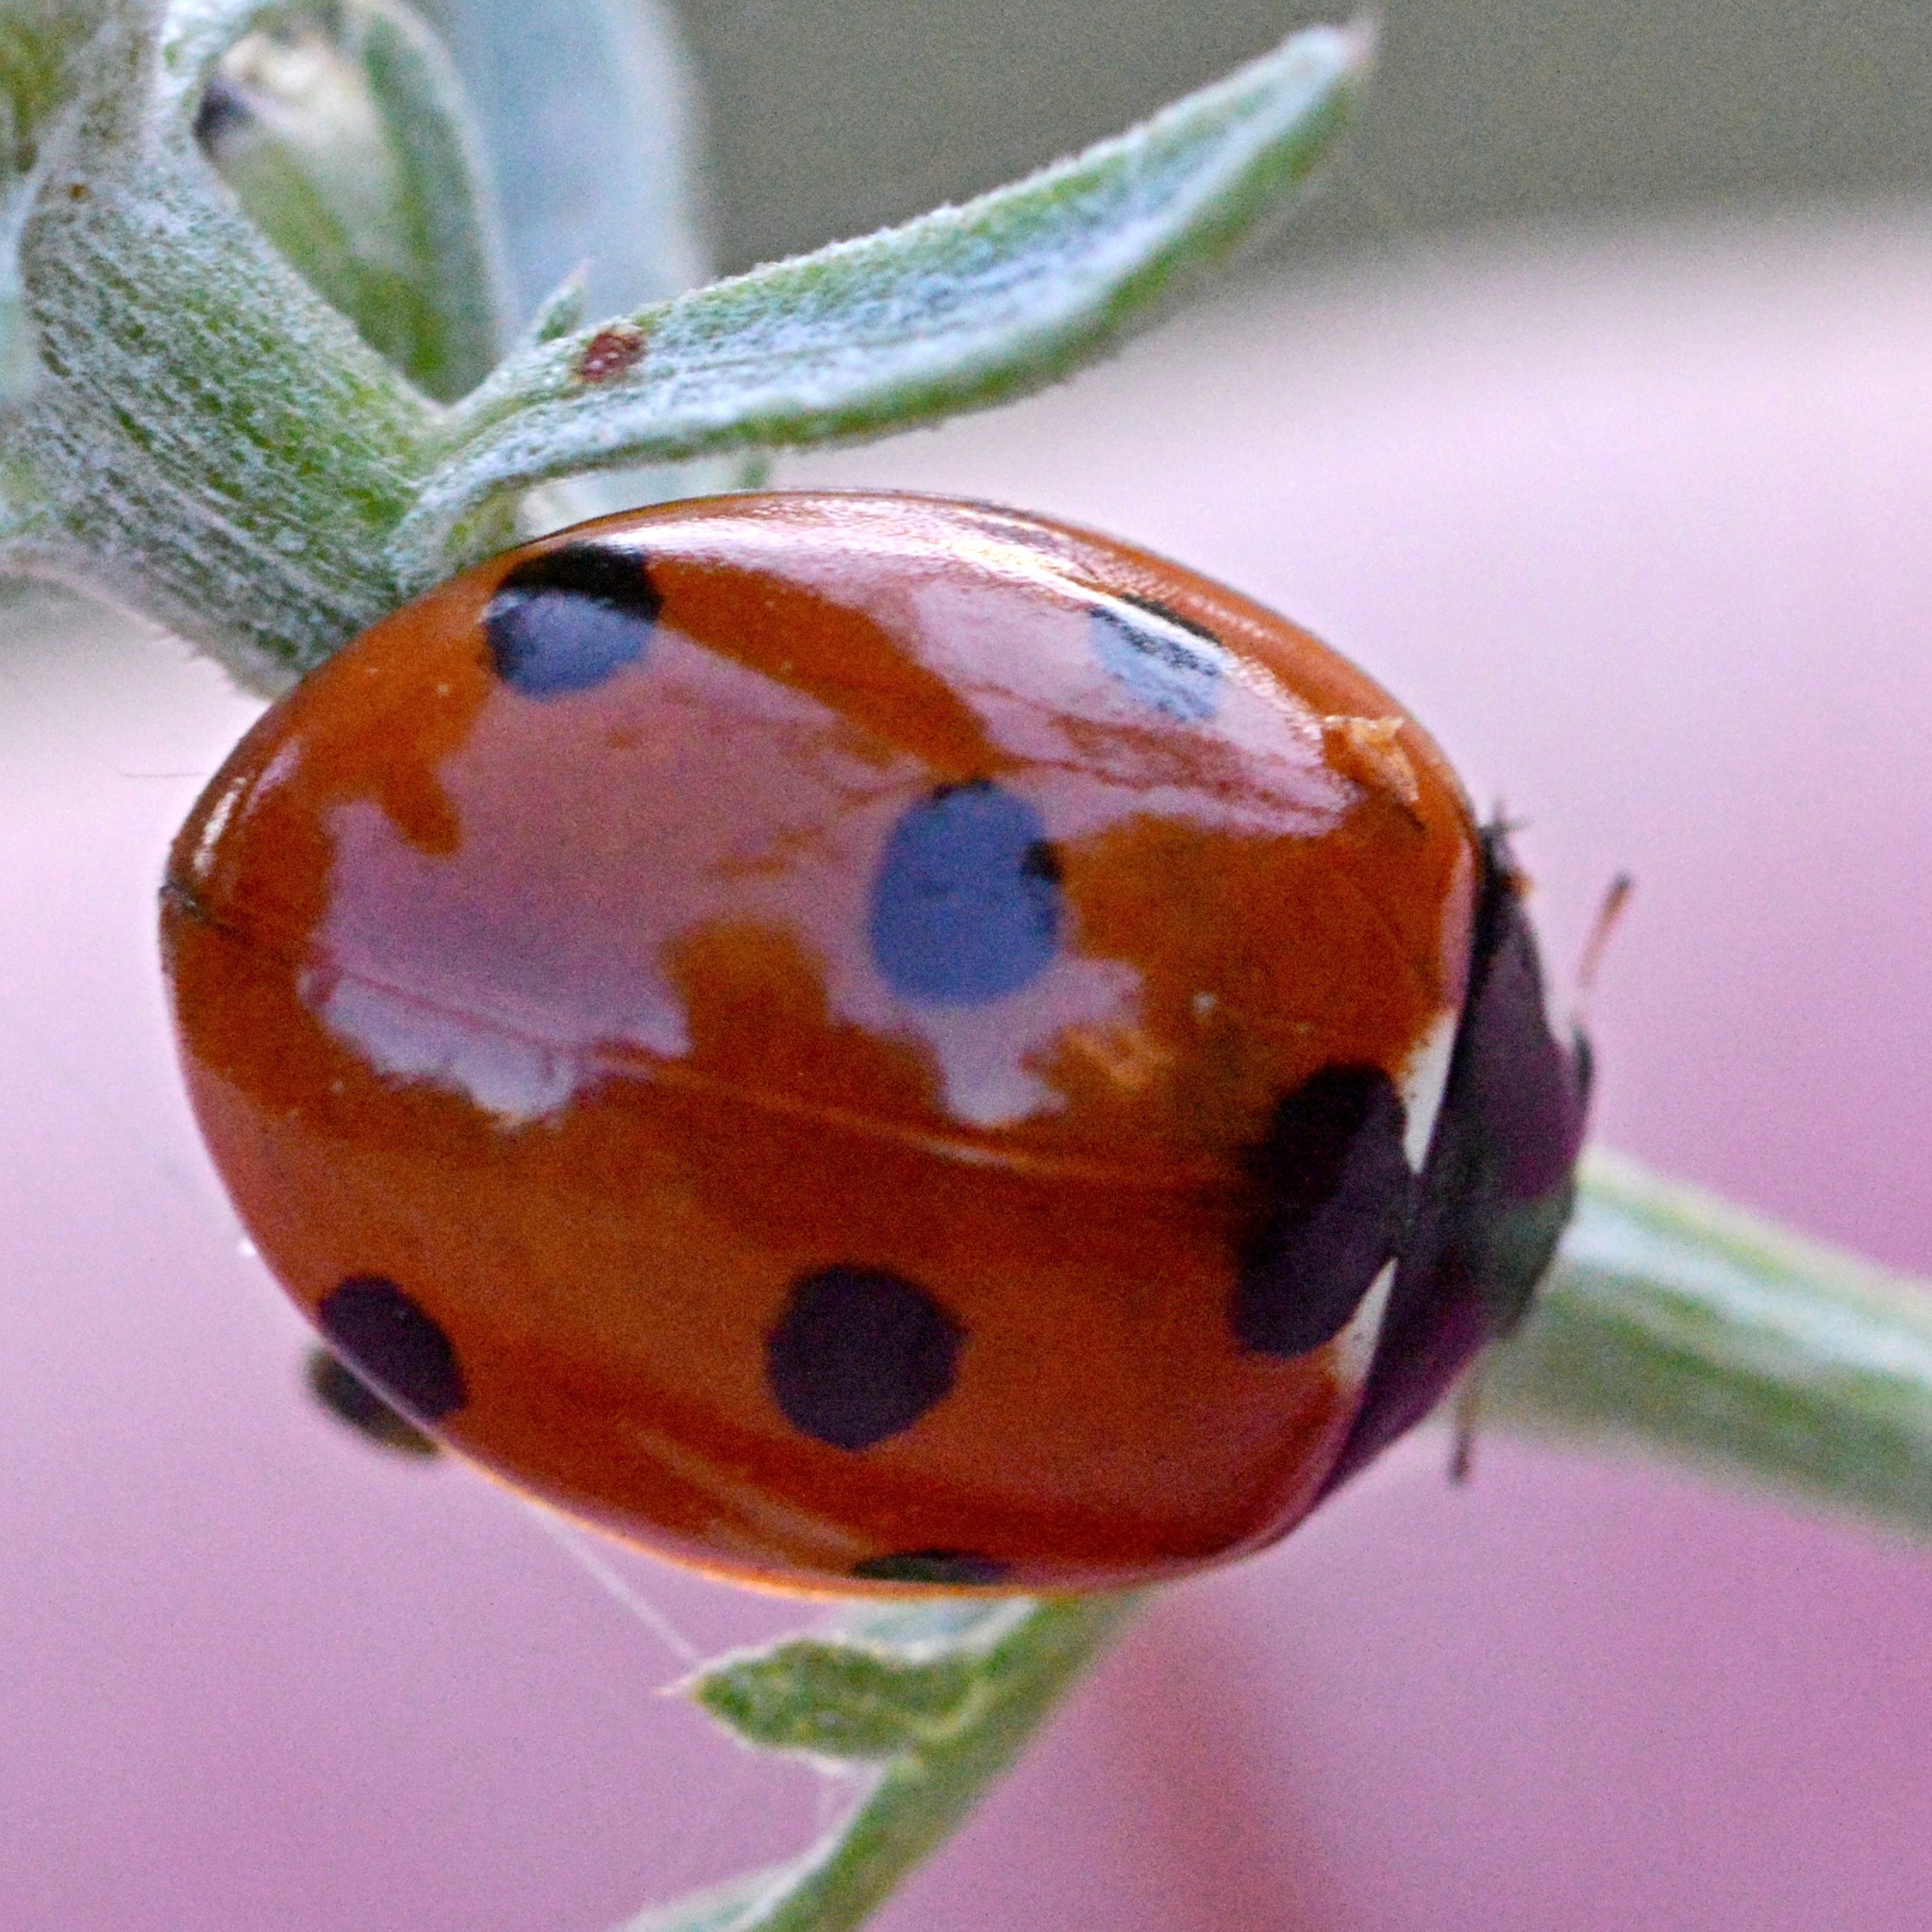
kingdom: Animalia
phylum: Arthropoda
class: Insecta
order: Coleoptera
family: Coccinellidae
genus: Coccinella
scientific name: Coccinella septempunctata
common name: Sevenspotted lady beetle
